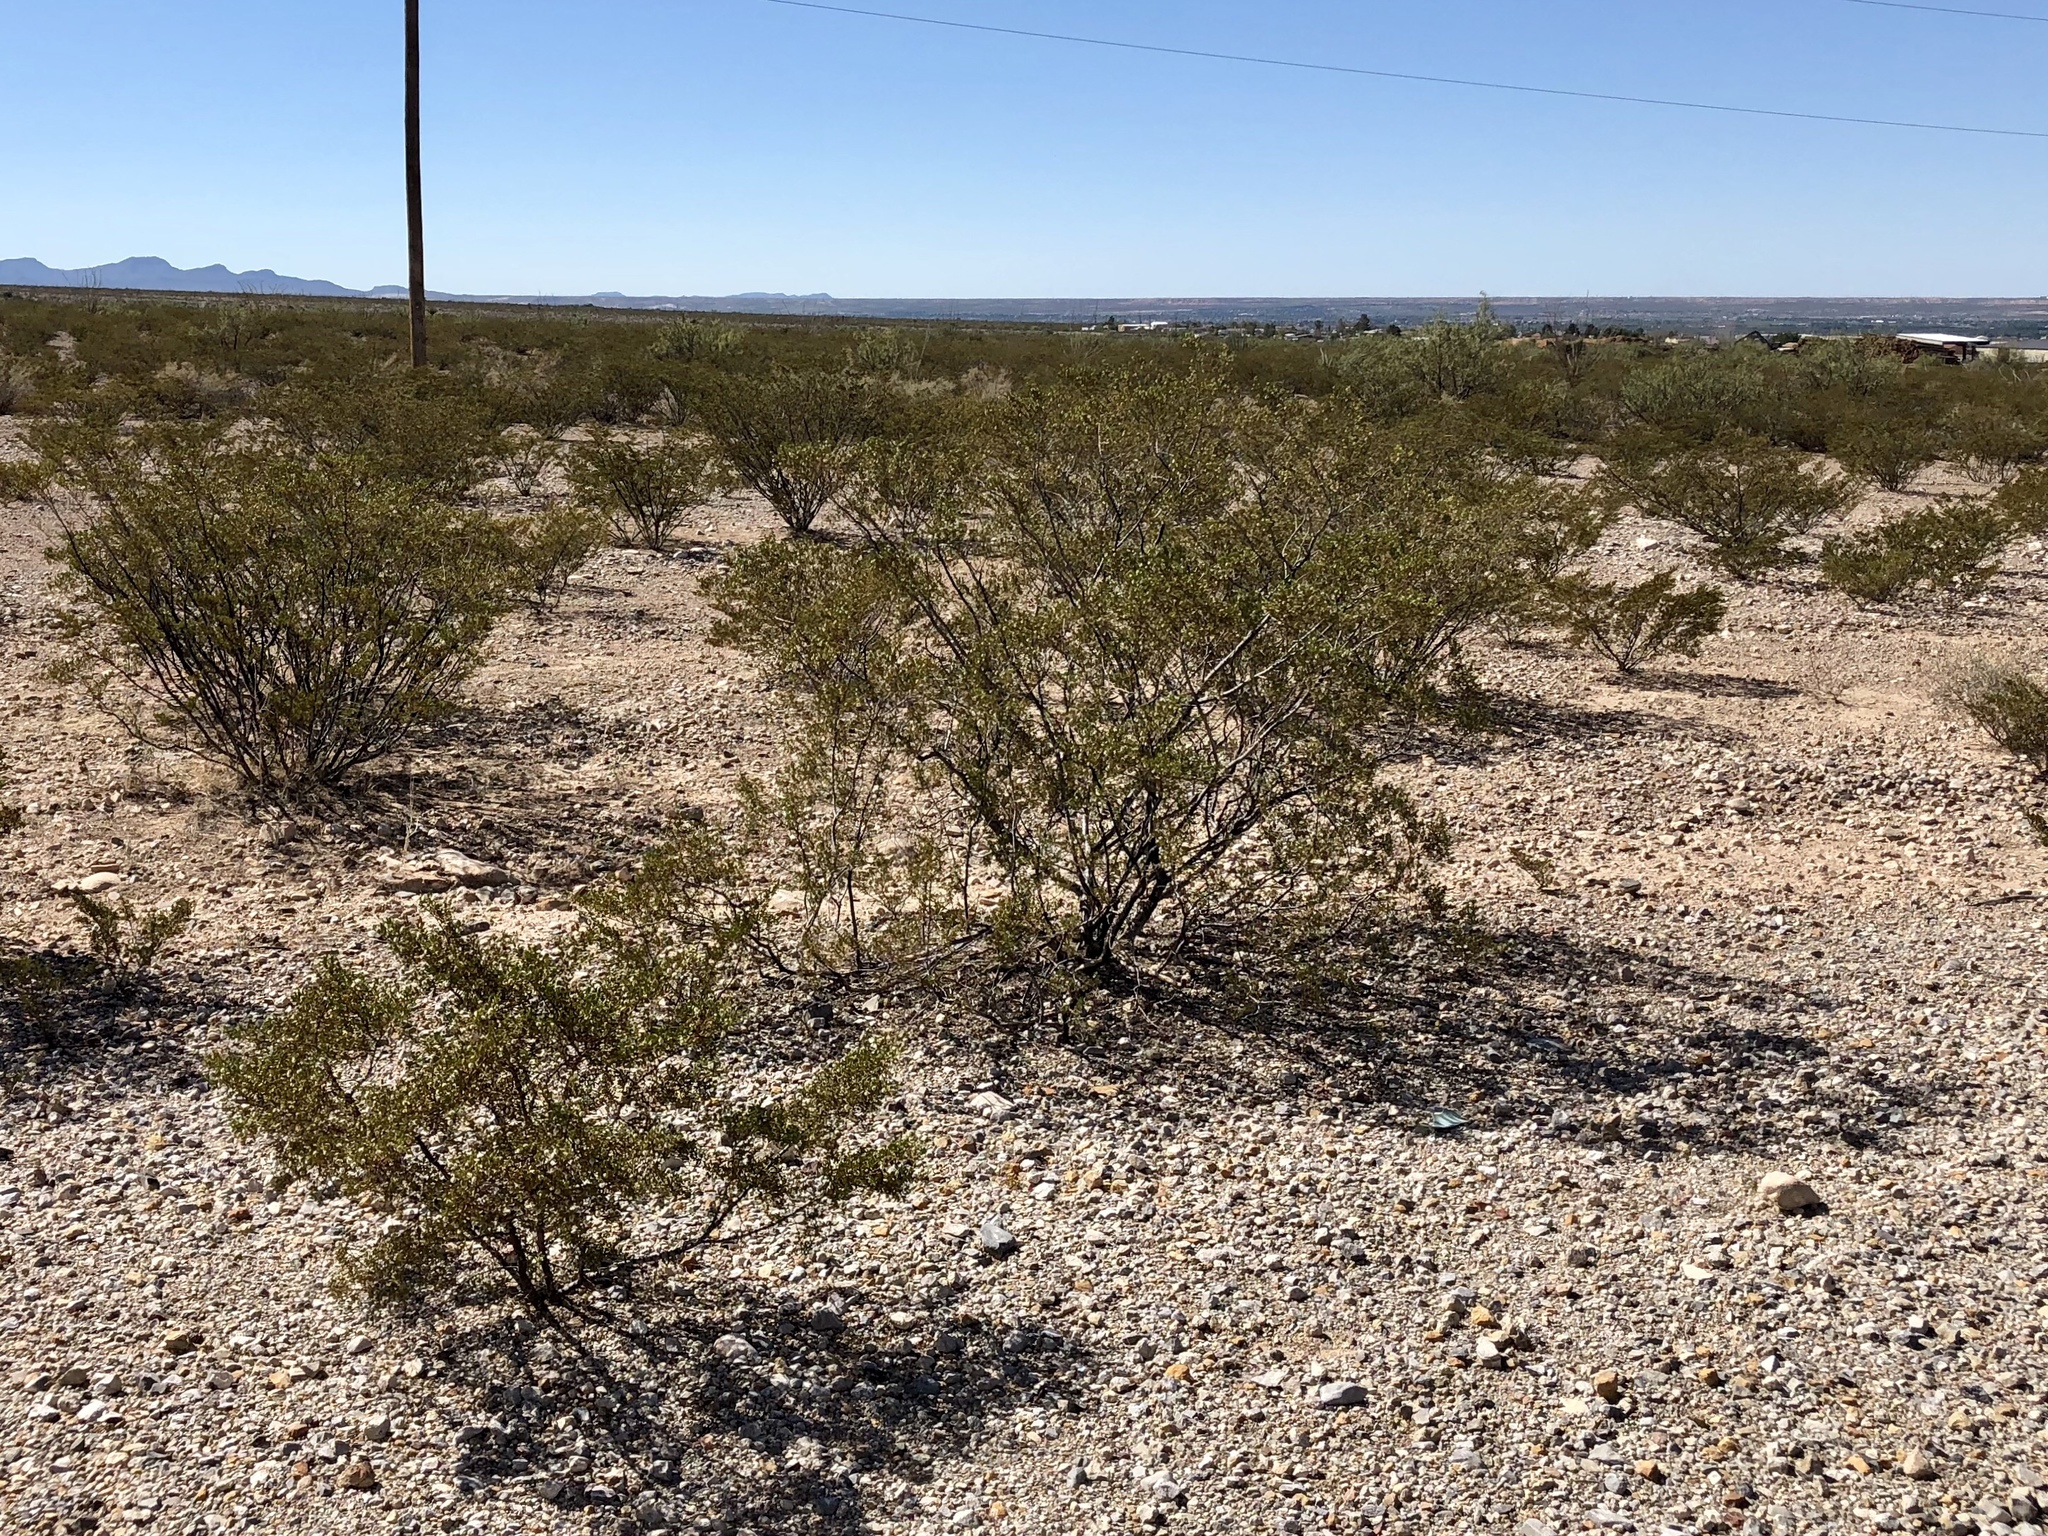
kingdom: Plantae
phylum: Tracheophyta
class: Magnoliopsida
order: Zygophyllales
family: Zygophyllaceae
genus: Larrea
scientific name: Larrea tridentata
